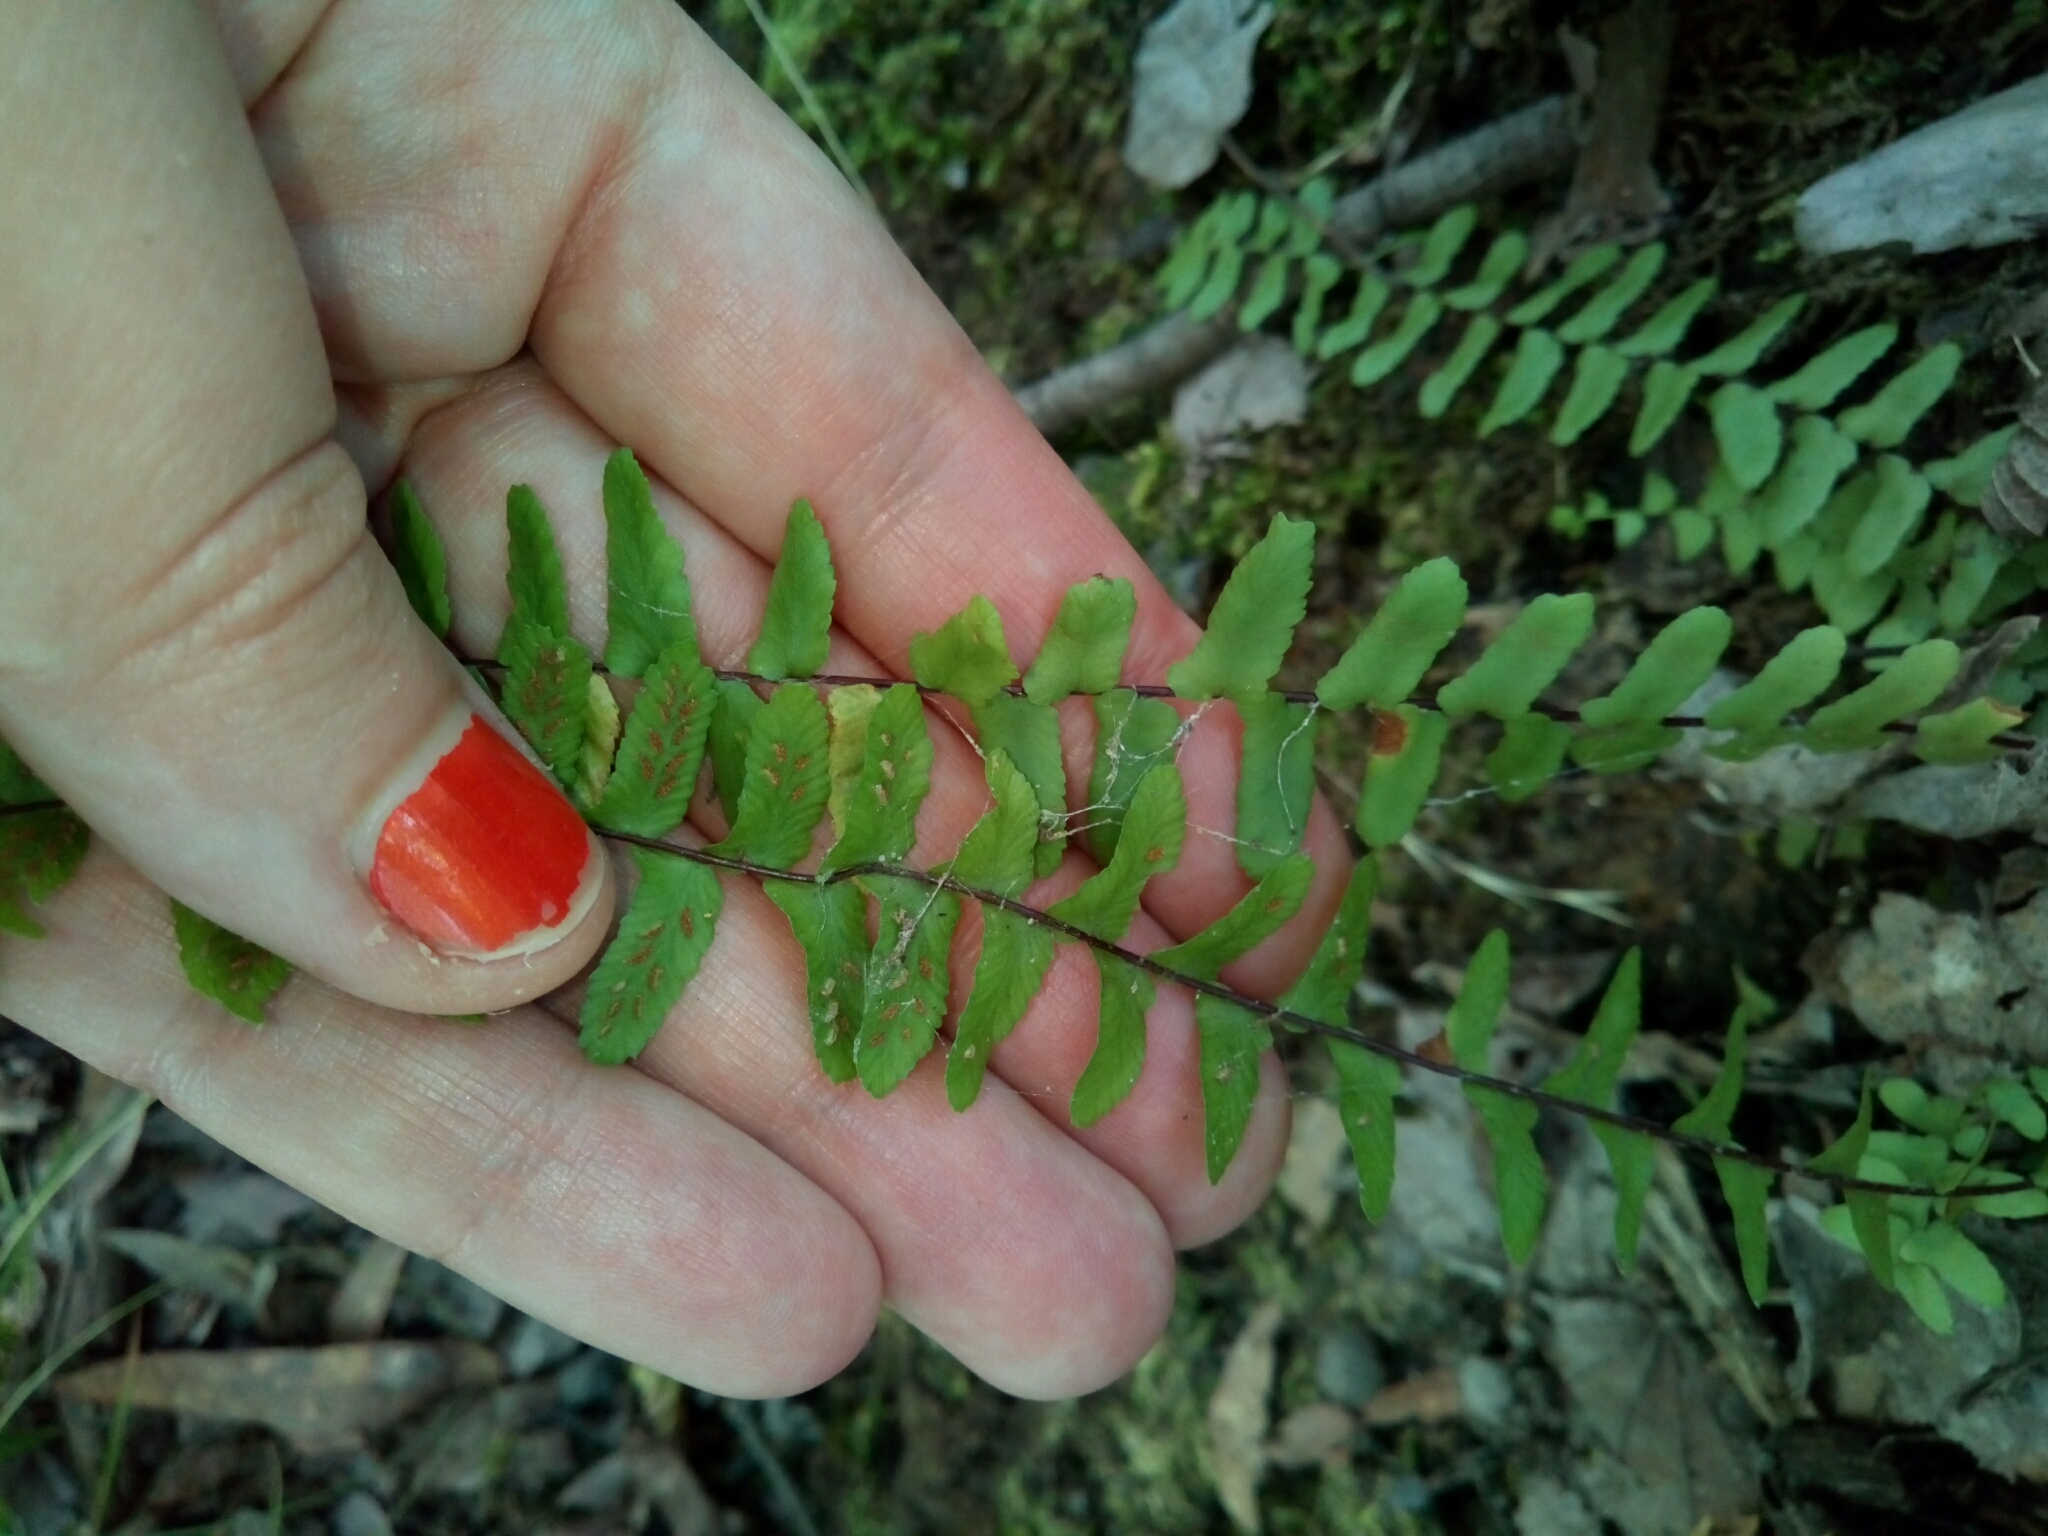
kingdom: Plantae
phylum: Tracheophyta
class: Polypodiopsida
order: Polypodiales
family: Aspleniaceae
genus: Asplenium
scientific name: Asplenium platyneuron
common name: Ebony spleenwort
